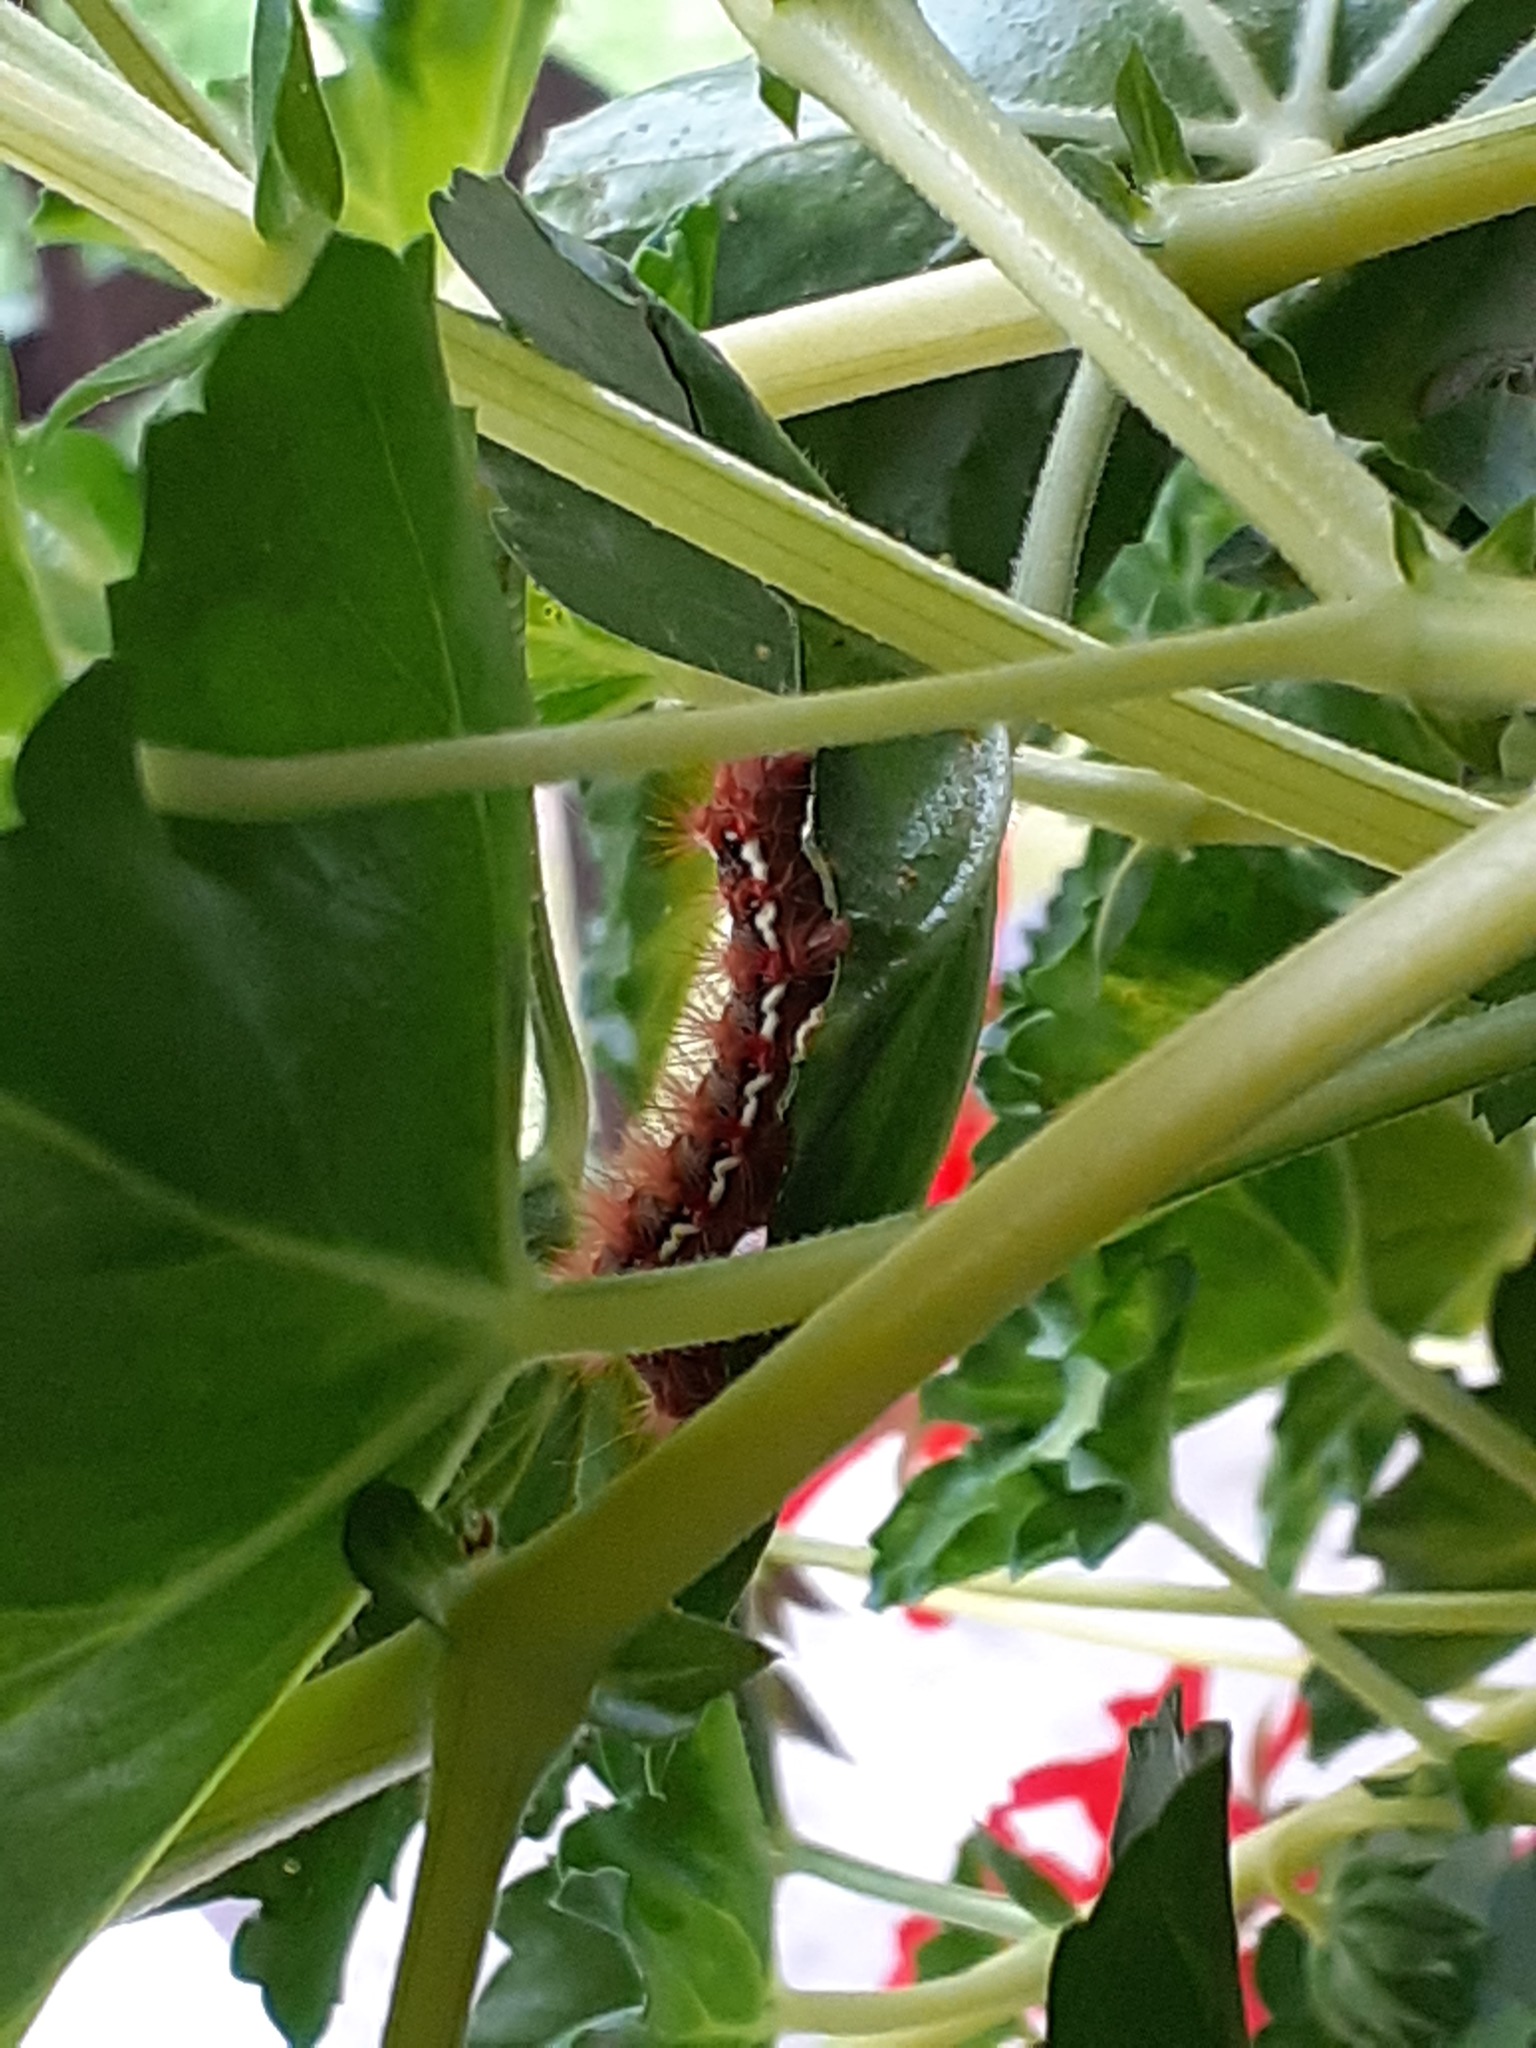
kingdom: Animalia
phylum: Arthropoda
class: Insecta
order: Lepidoptera
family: Noctuidae
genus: Acronicta
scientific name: Acronicta rumicis
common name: Knot grass
